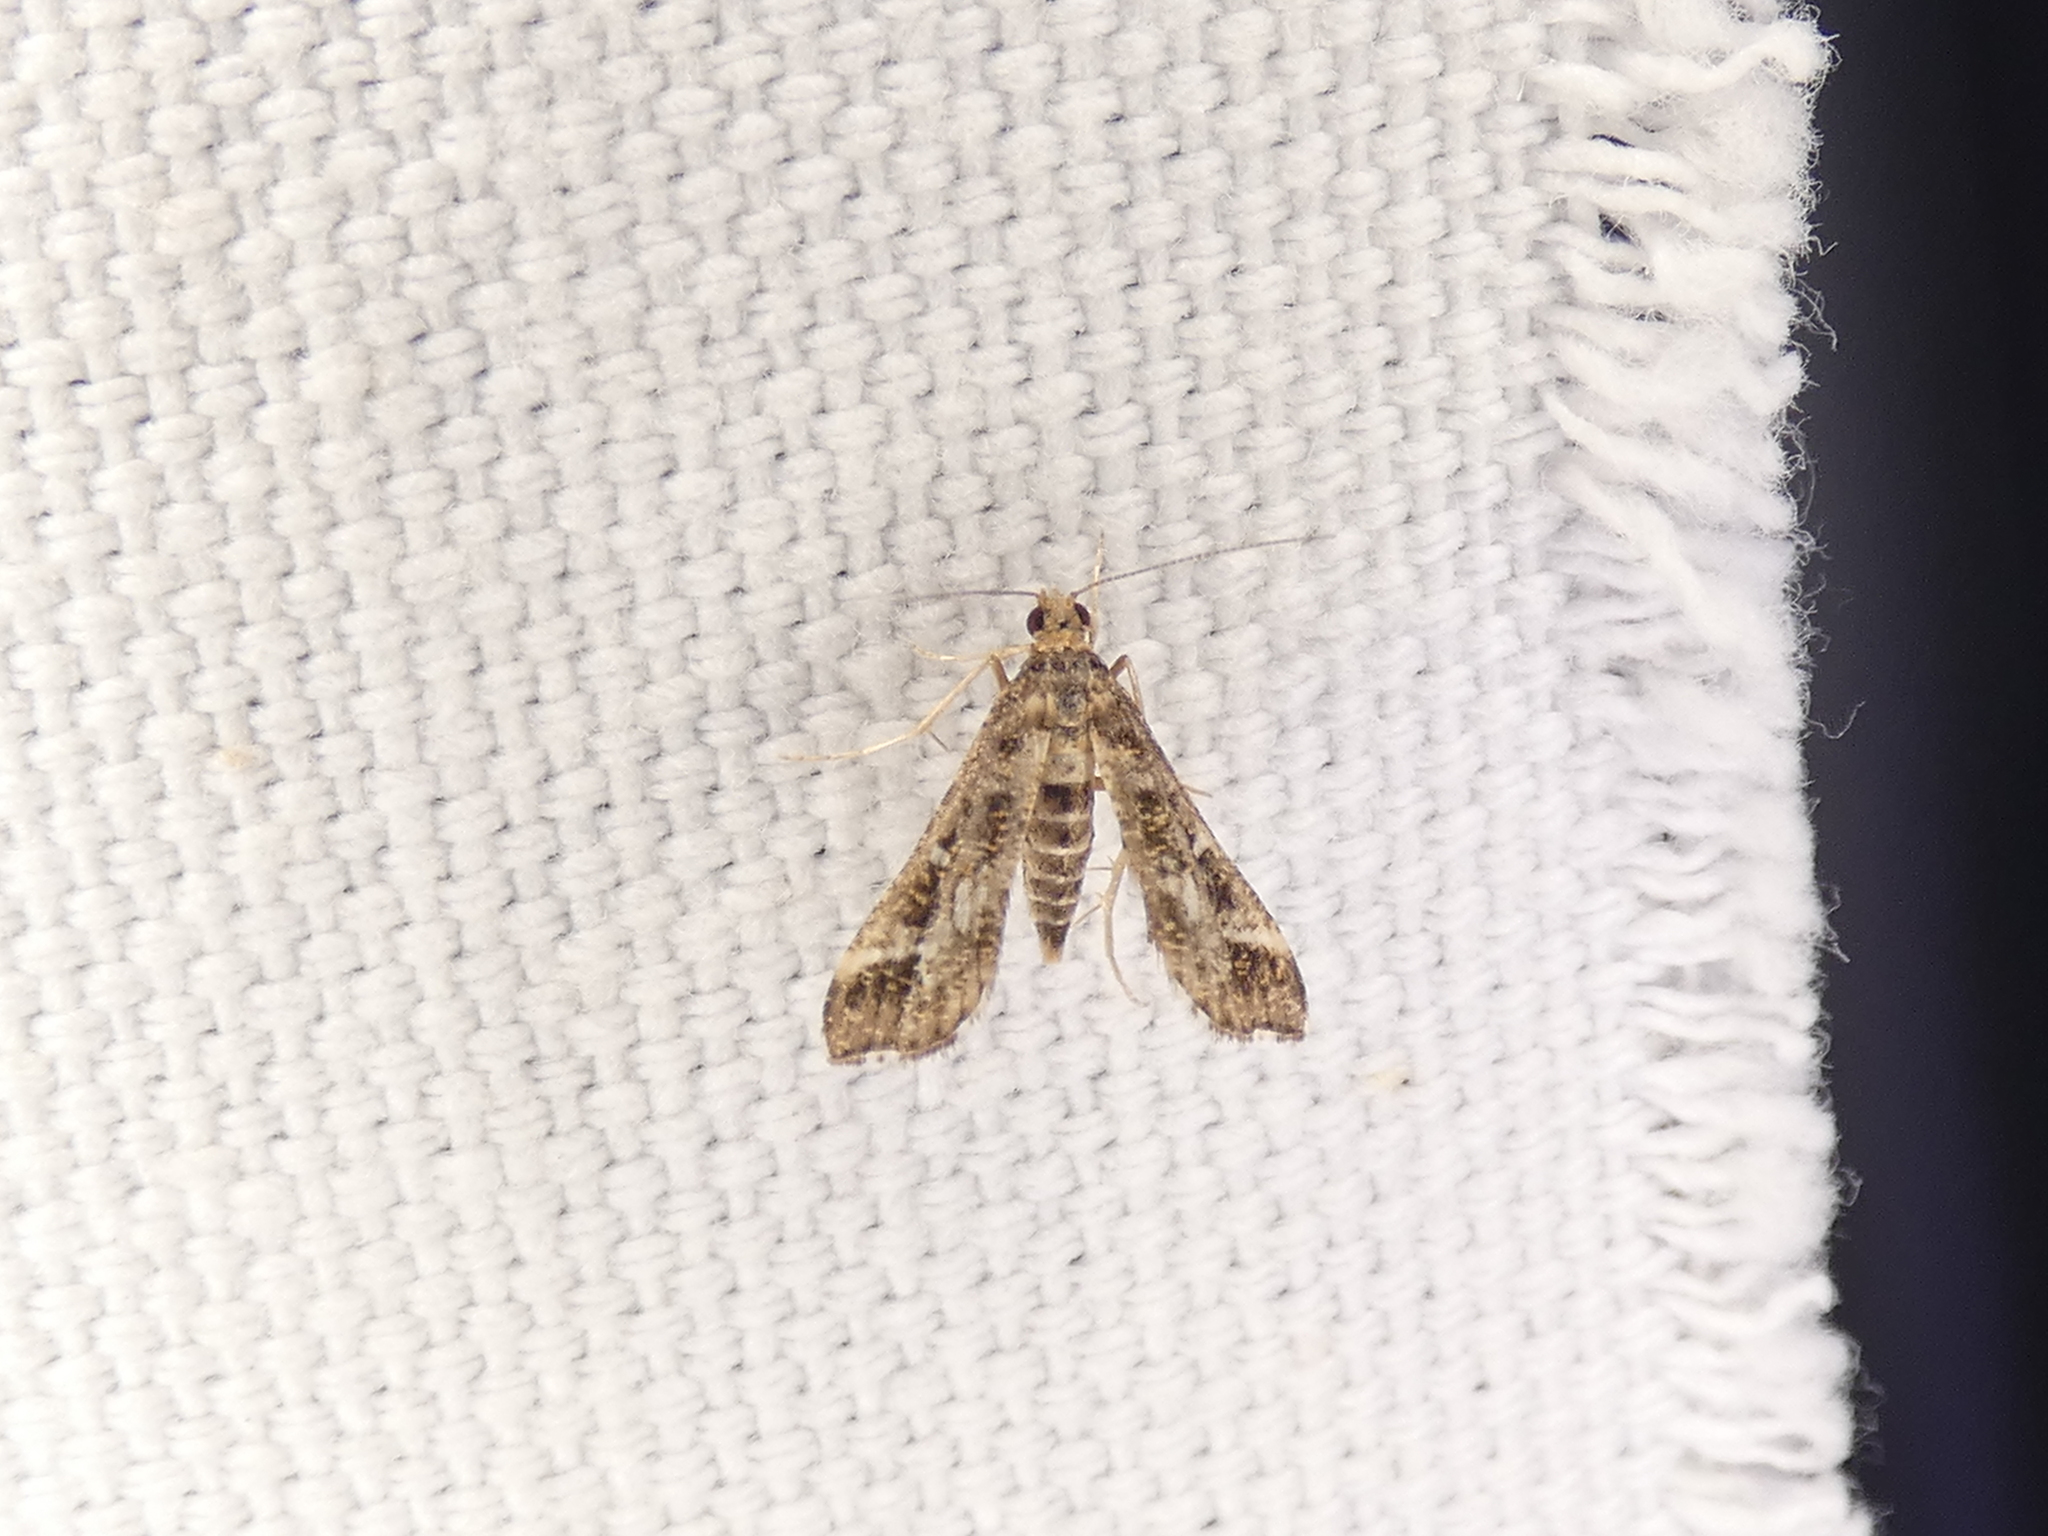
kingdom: Animalia
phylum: Arthropoda
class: Insecta
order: Lepidoptera
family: Crambidae
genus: Diasemiopsis
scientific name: Diasemiopsis ramburialis
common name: Vagrant china-mark
